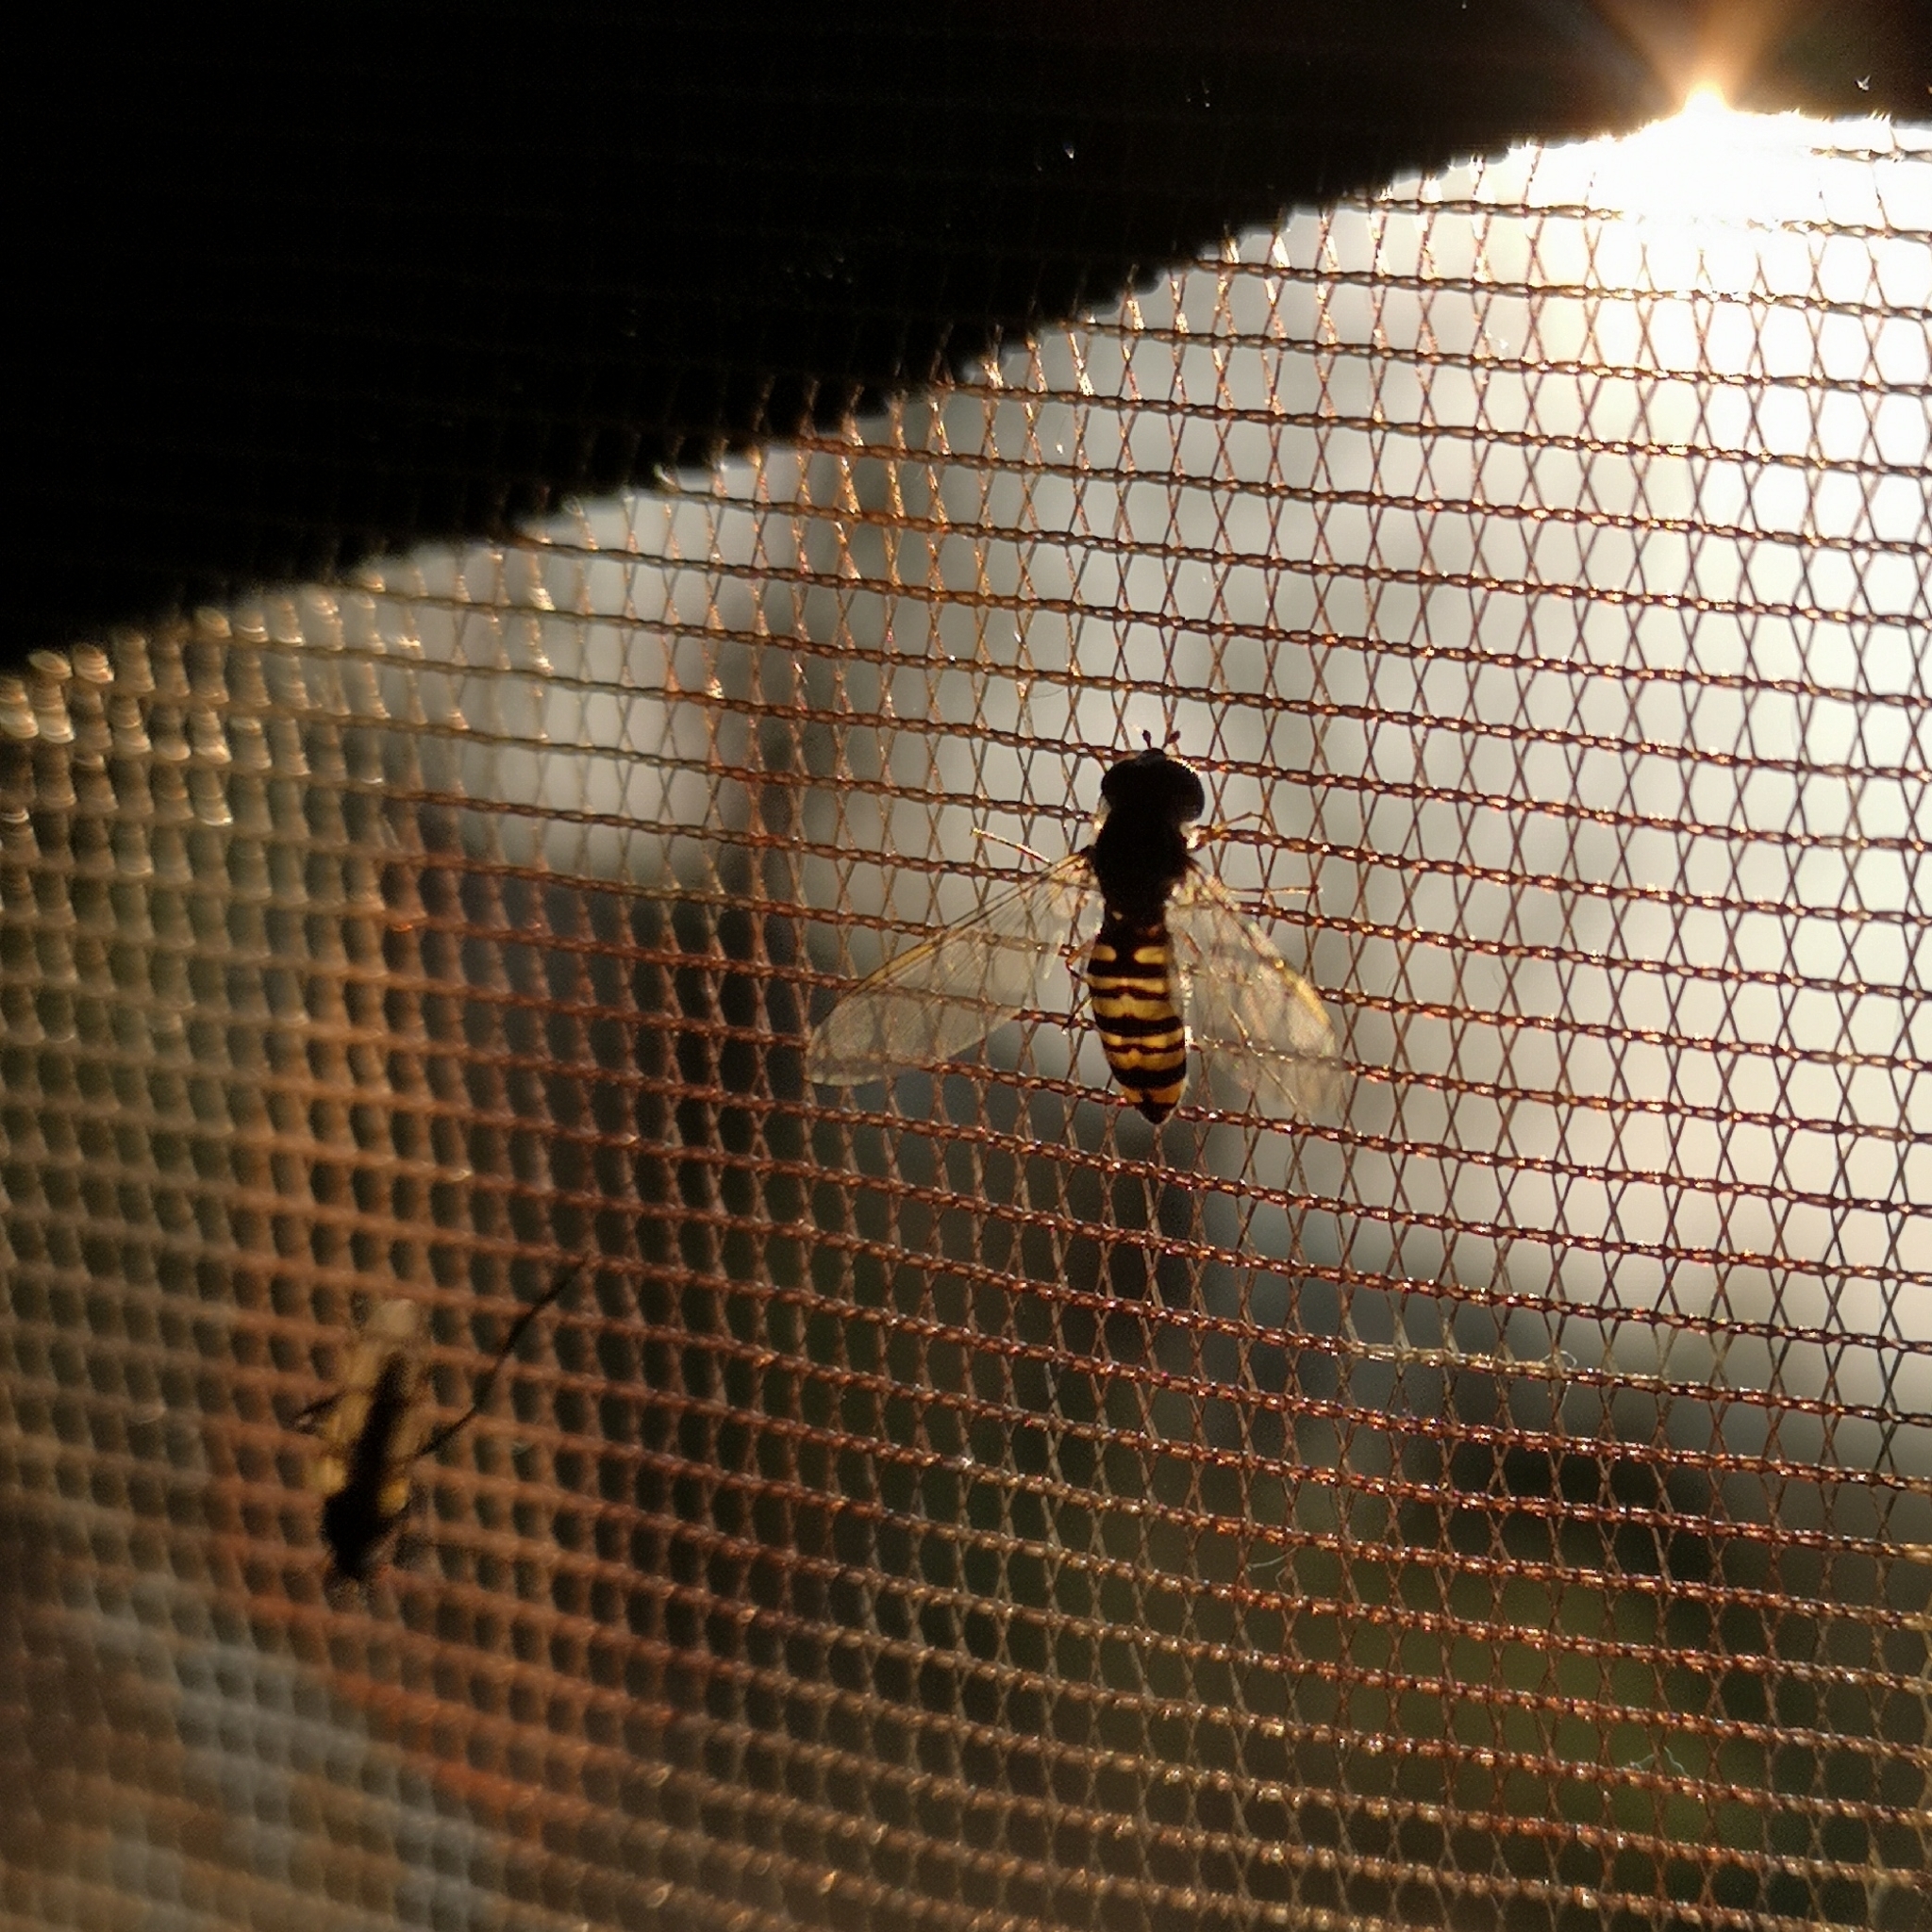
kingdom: Animalia
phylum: Arthropoda
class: Insecta
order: Diptera
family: Syrphidae
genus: Episyrphus
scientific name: Episyrphus balteatus
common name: Marmalade hoverfly
